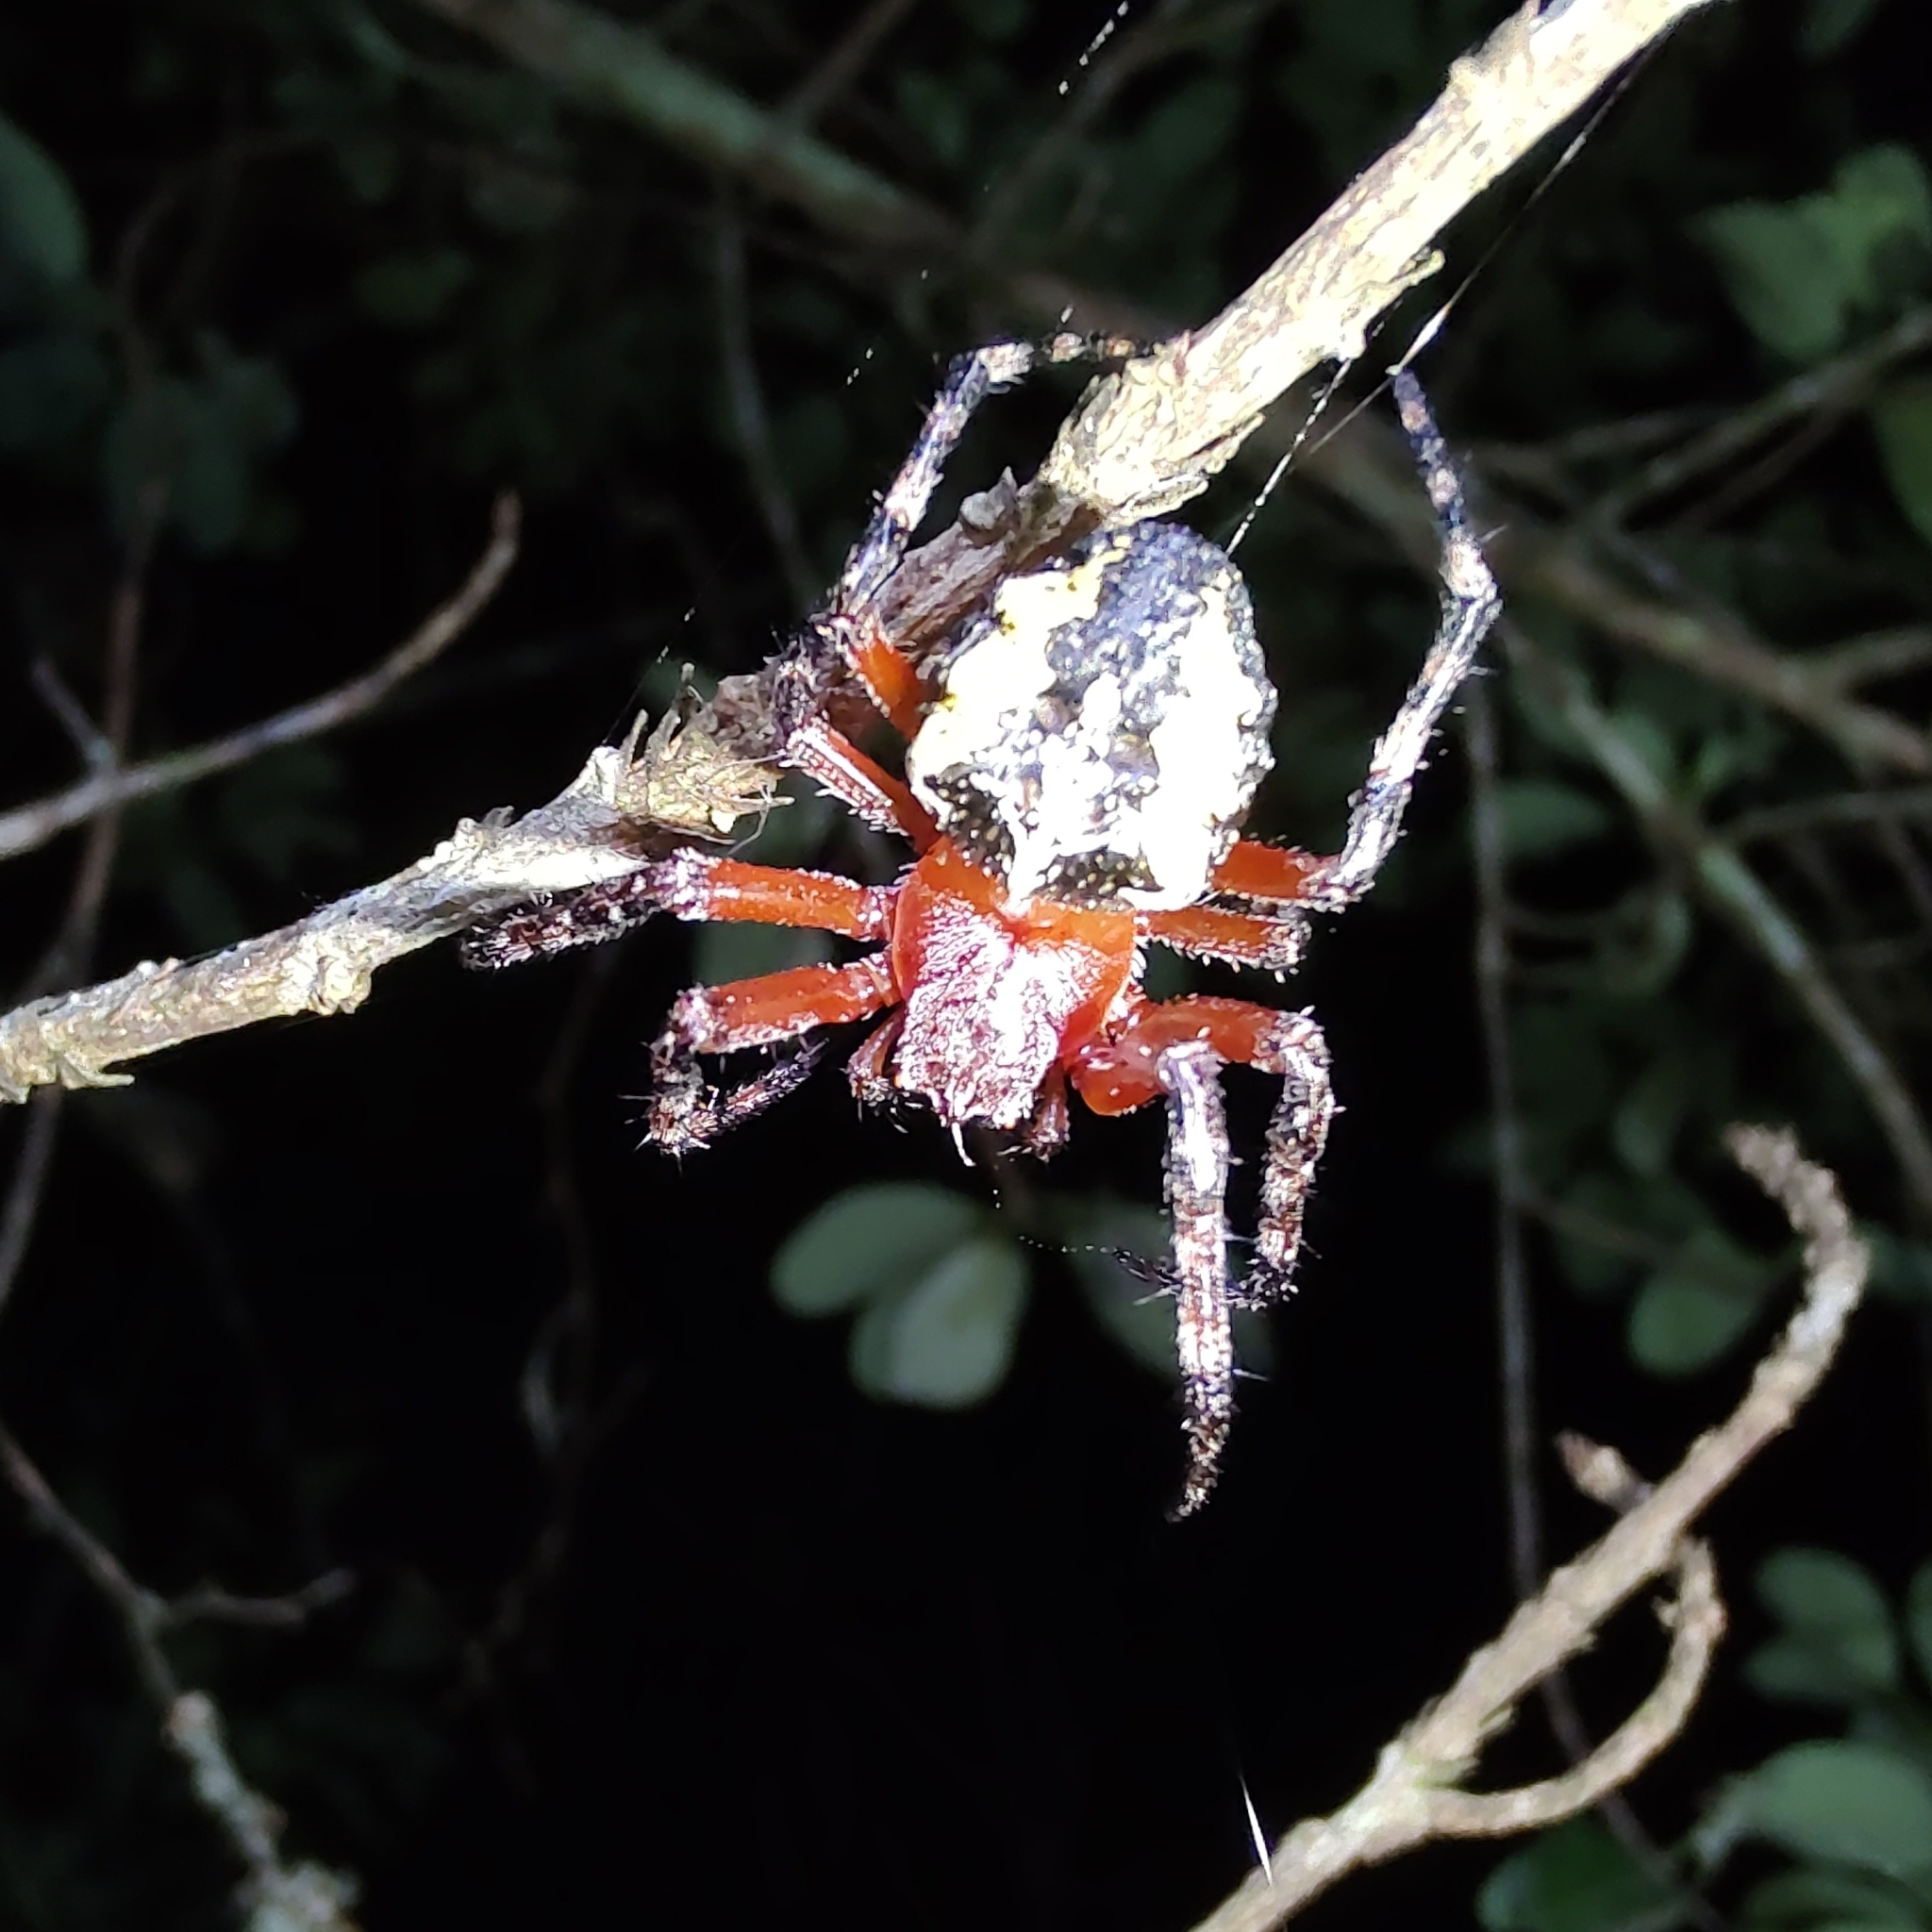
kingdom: Animalia
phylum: Arthropoda
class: Arachnida
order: Araneae
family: Araneidae
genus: Parawixia
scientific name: Parawixia undulata
